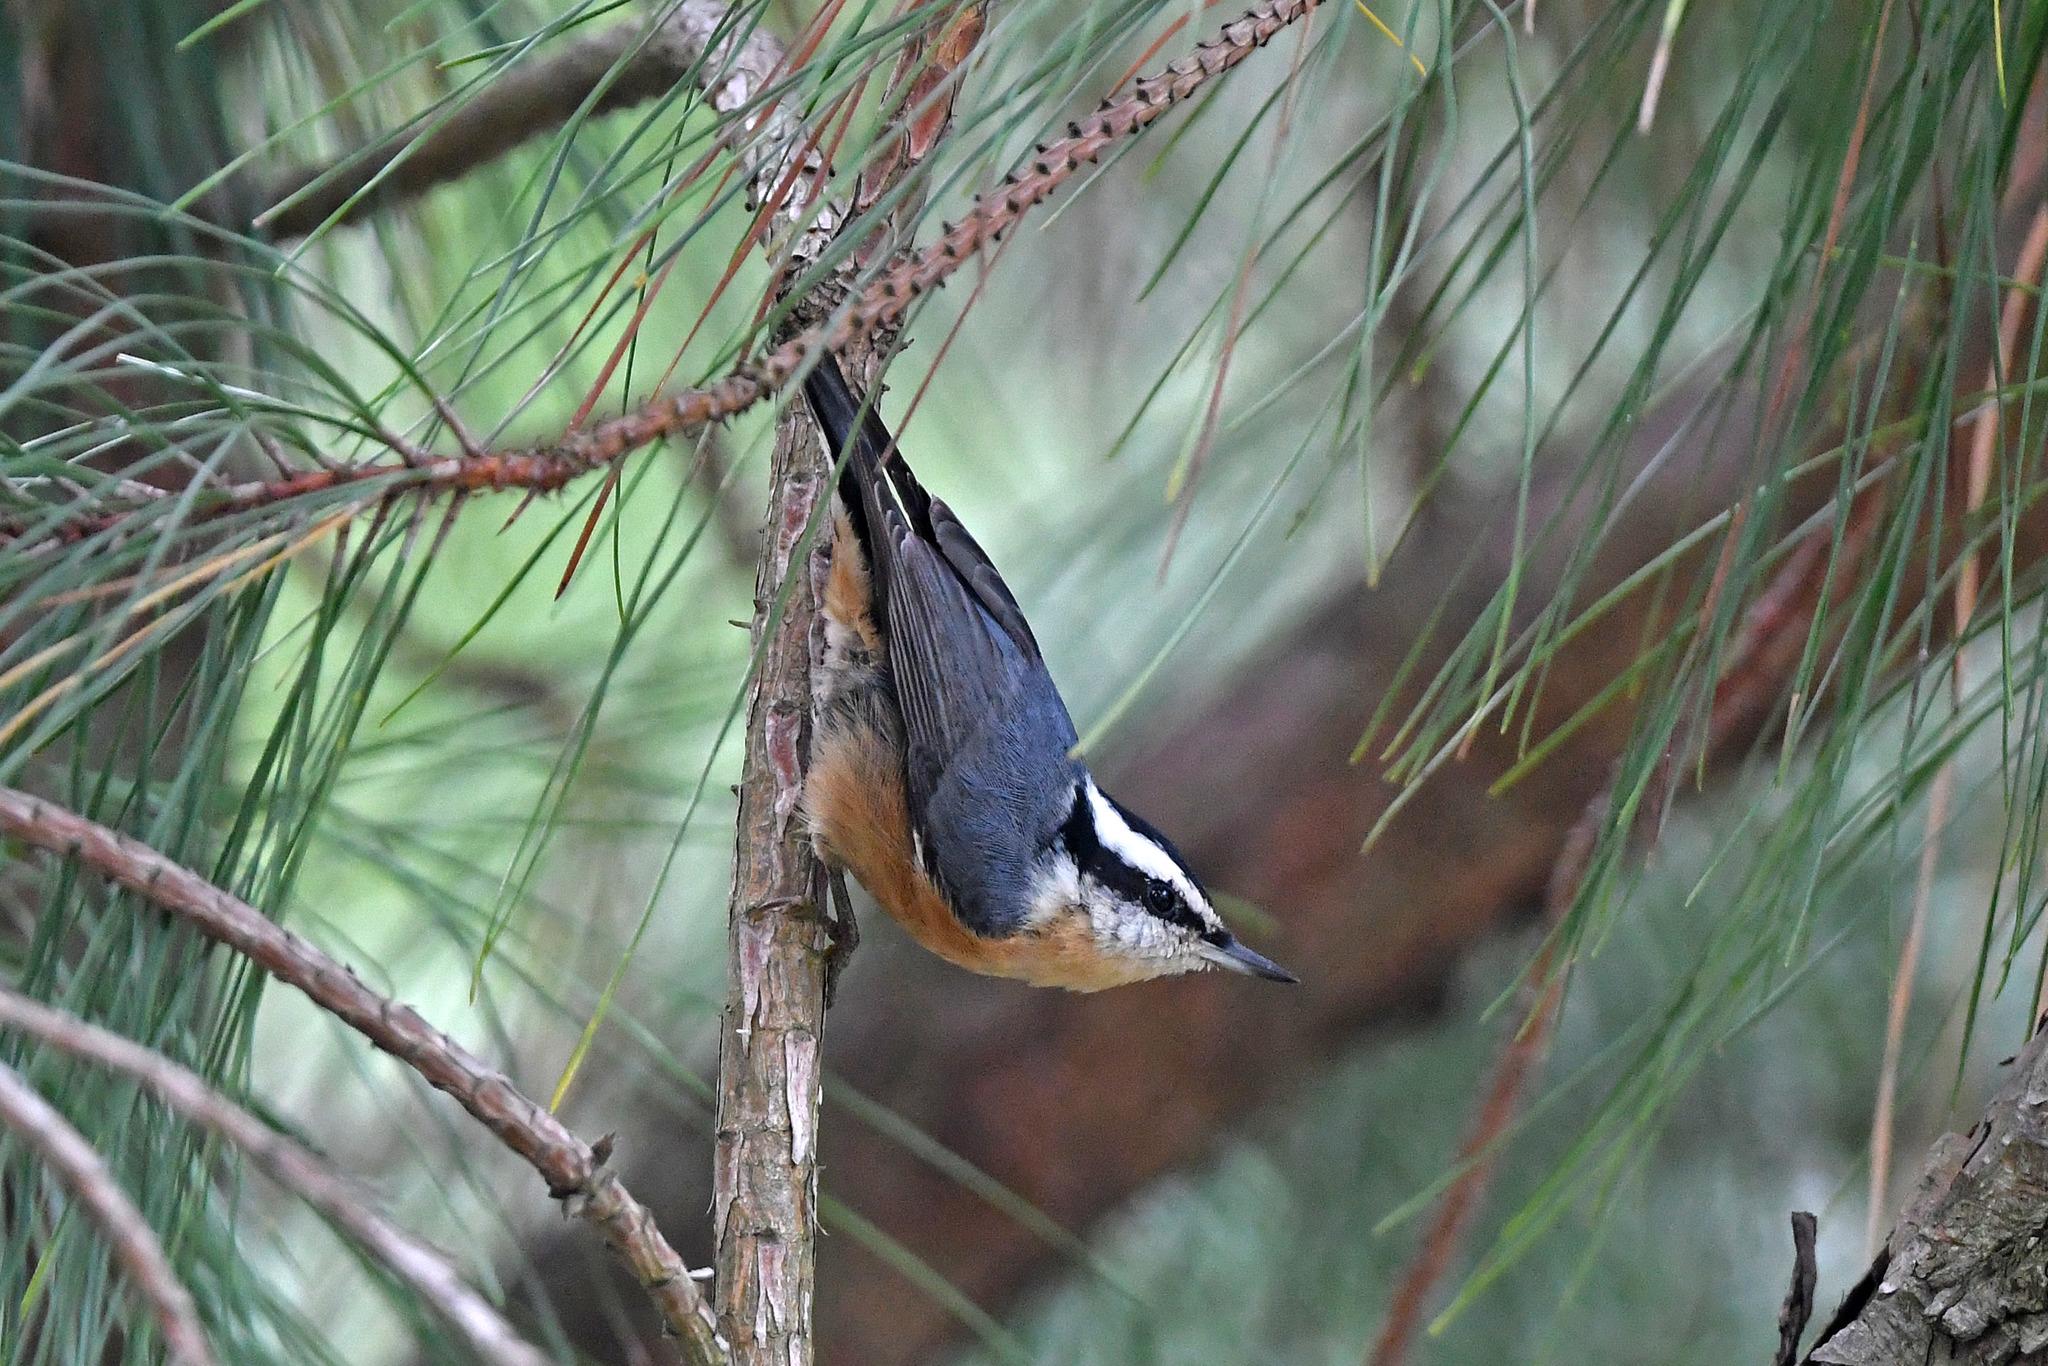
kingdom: Animalia
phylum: Chordata
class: Aves
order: Passeriformes
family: Sittidae
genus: Sitta
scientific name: Sitta canadensis
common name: Red-breasted nuthatch
